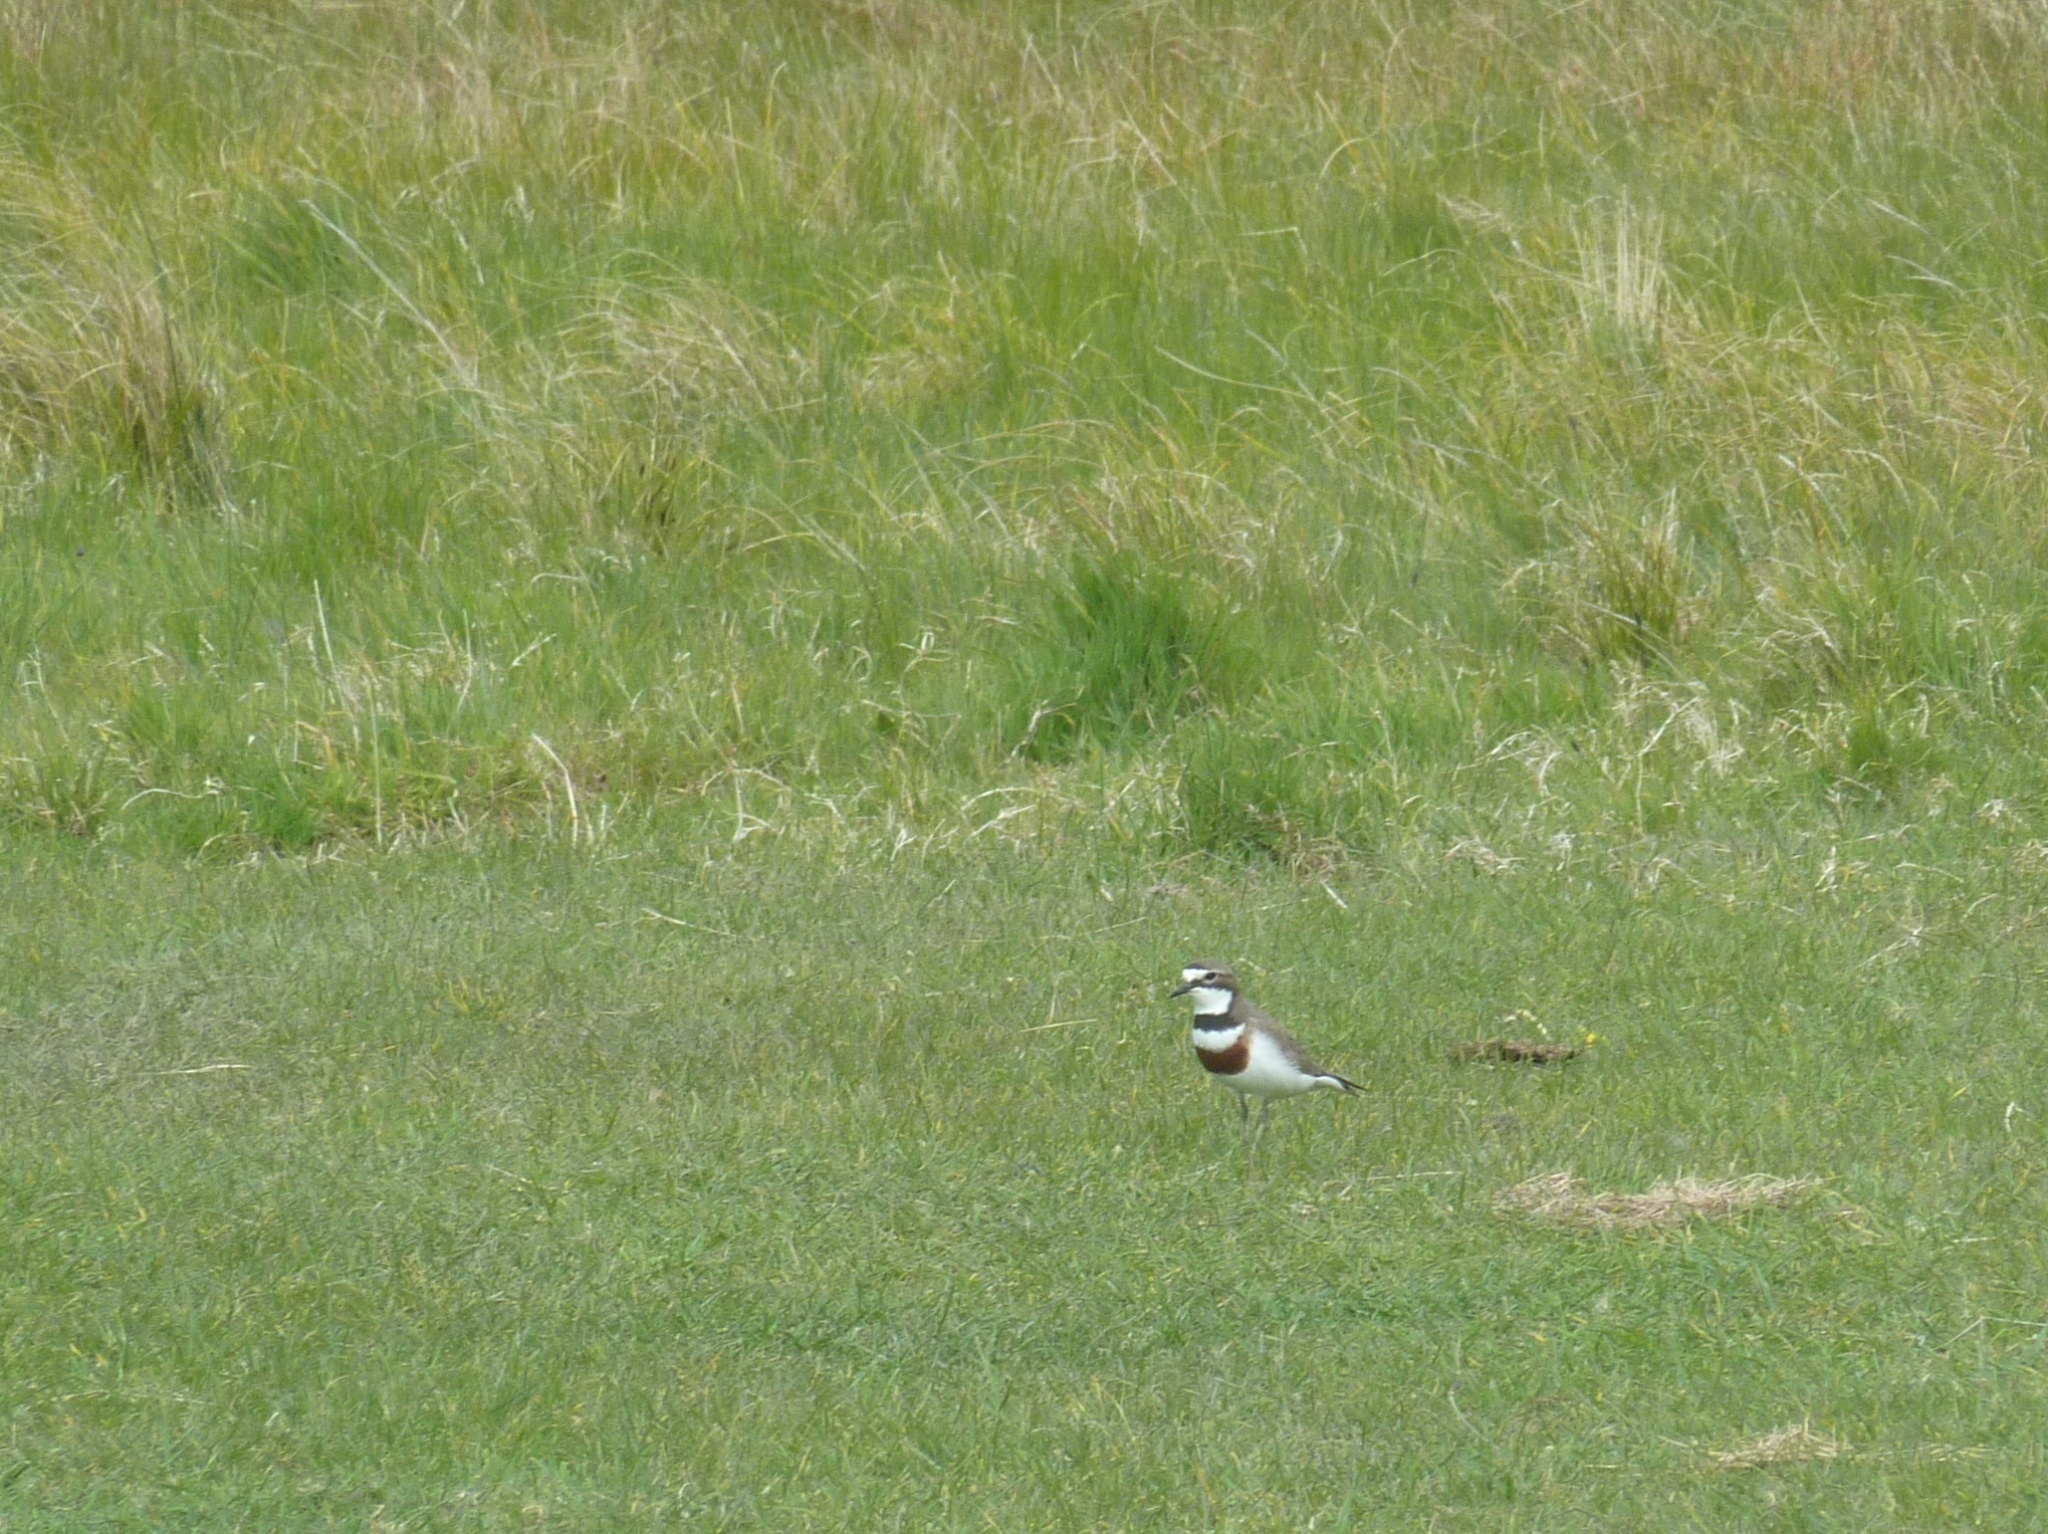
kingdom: Animalia
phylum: Chordata
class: Aves
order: Charadriiformes
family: Charadriidae
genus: Anarhynchus
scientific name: Anarhynchus
